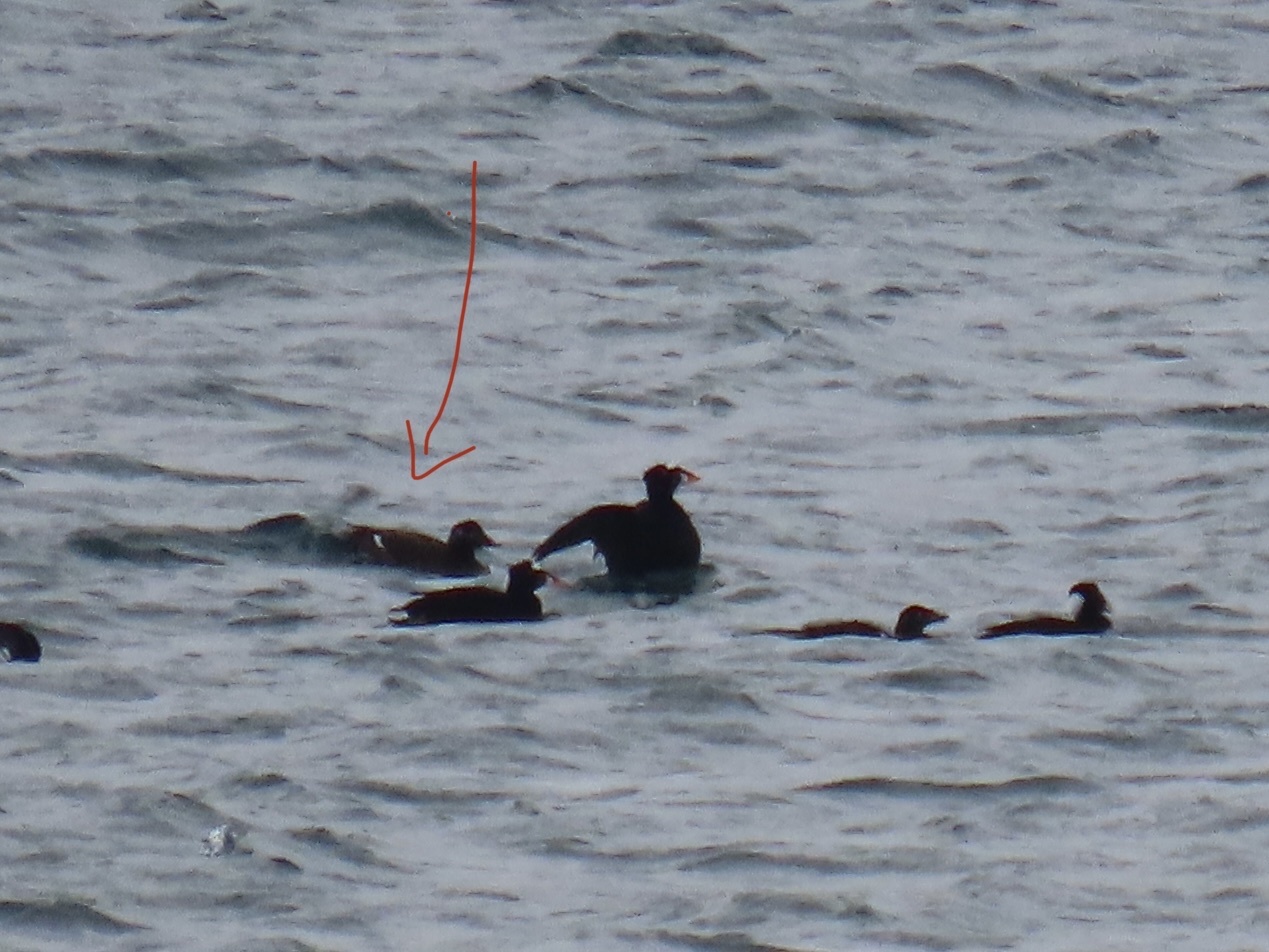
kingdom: Animalia
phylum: Chordata
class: Aves
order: Anseriformes
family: Anatidae
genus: Melanitta
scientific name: Melanitta deglandi
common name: White-winged scoter
